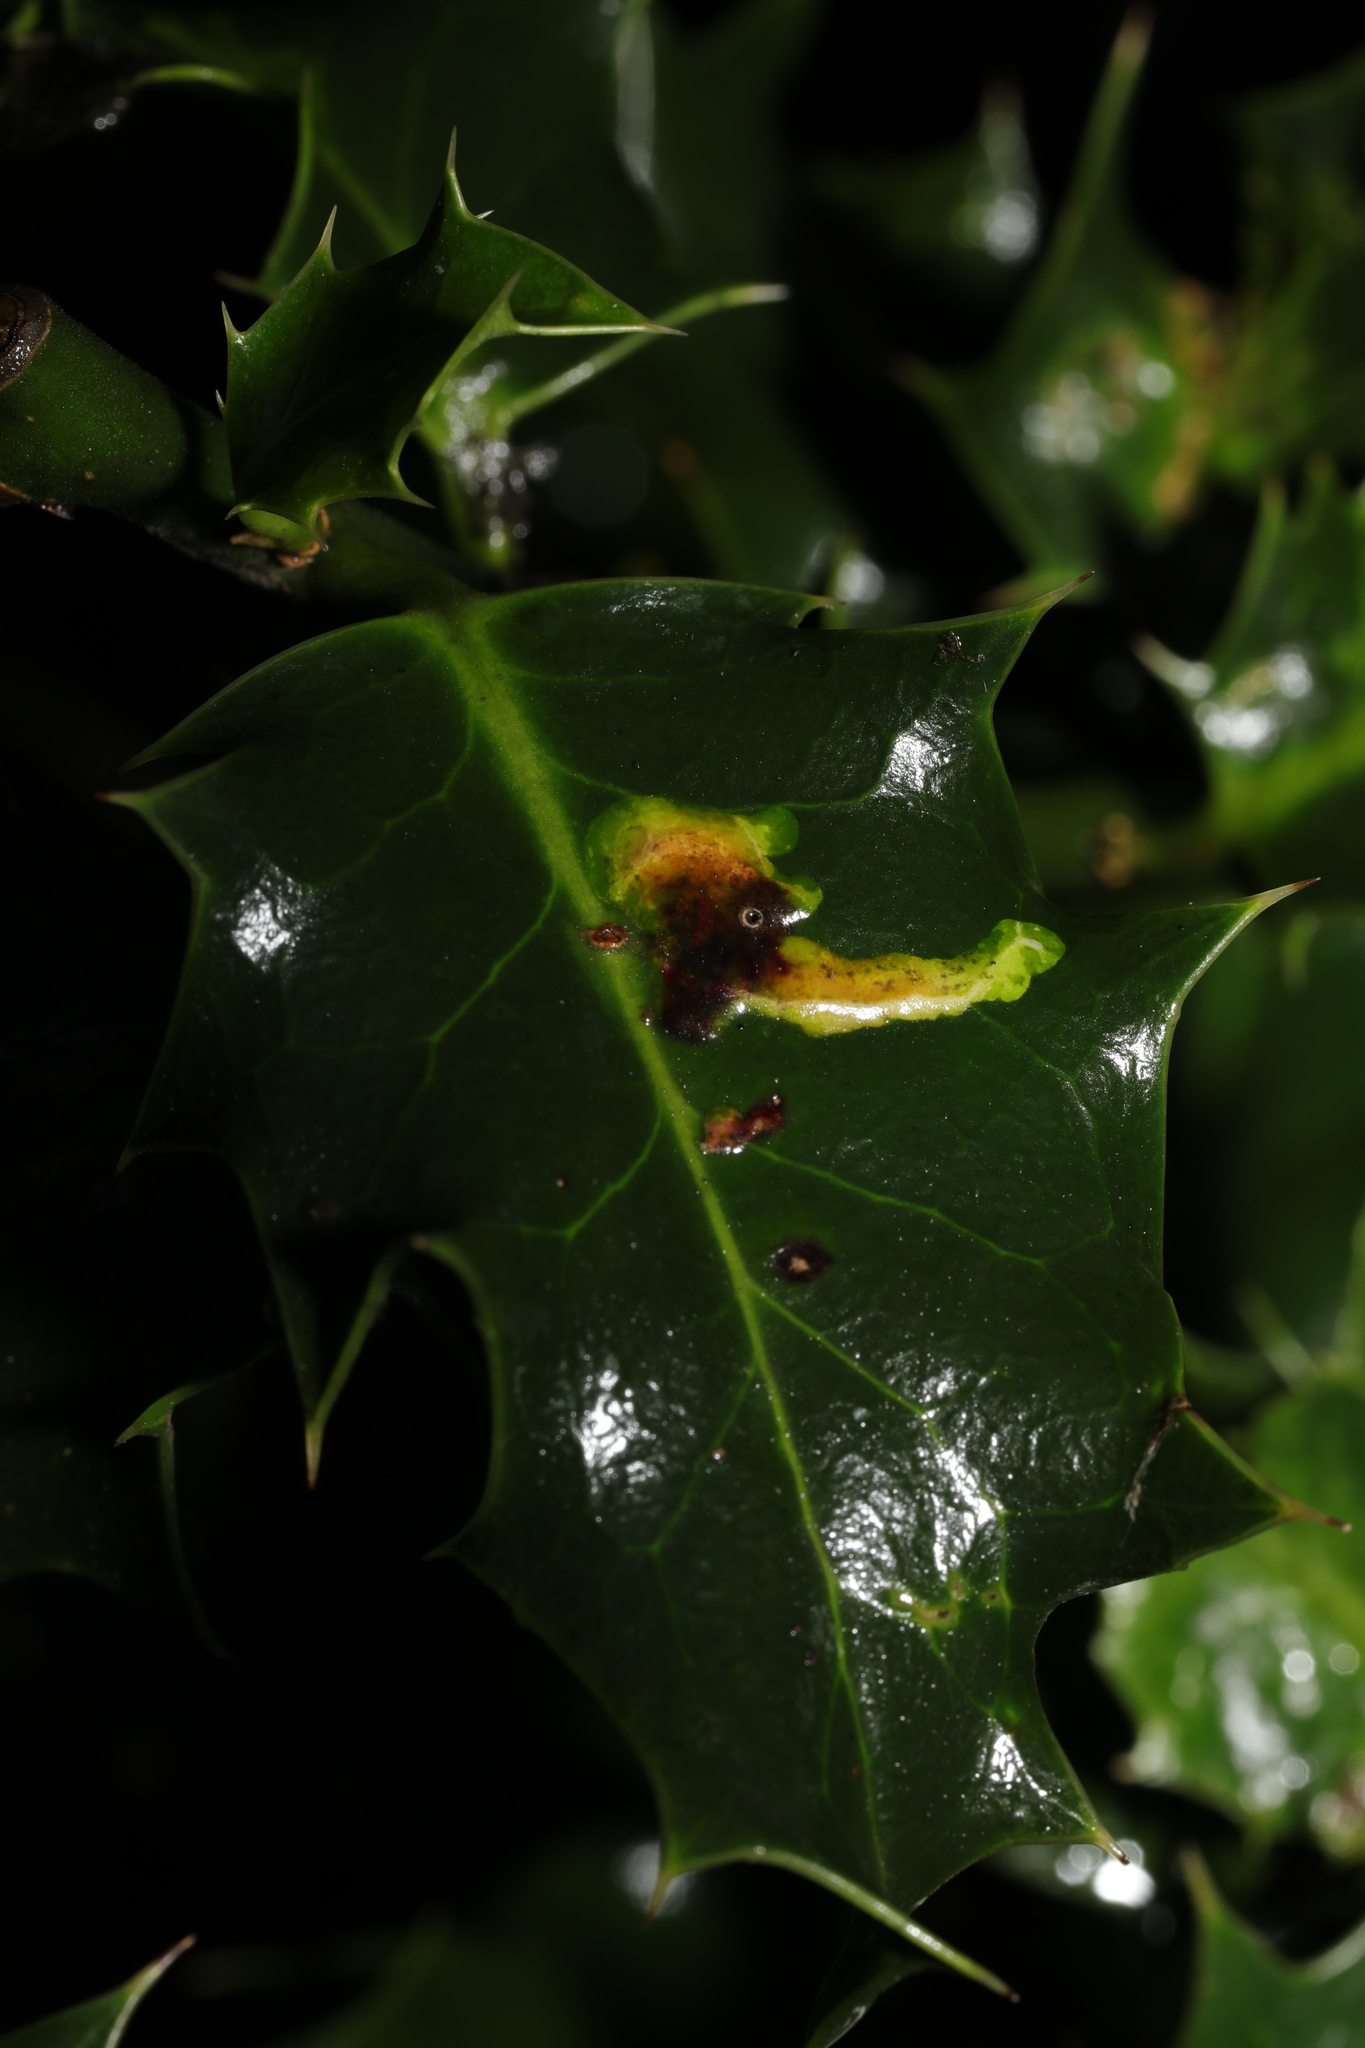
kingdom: Animalia
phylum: Arthropoda
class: Insecta
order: Diptera
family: Agromyzidae
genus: Phytomyza
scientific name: Phytomyza ilicis
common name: Holly leafminer
